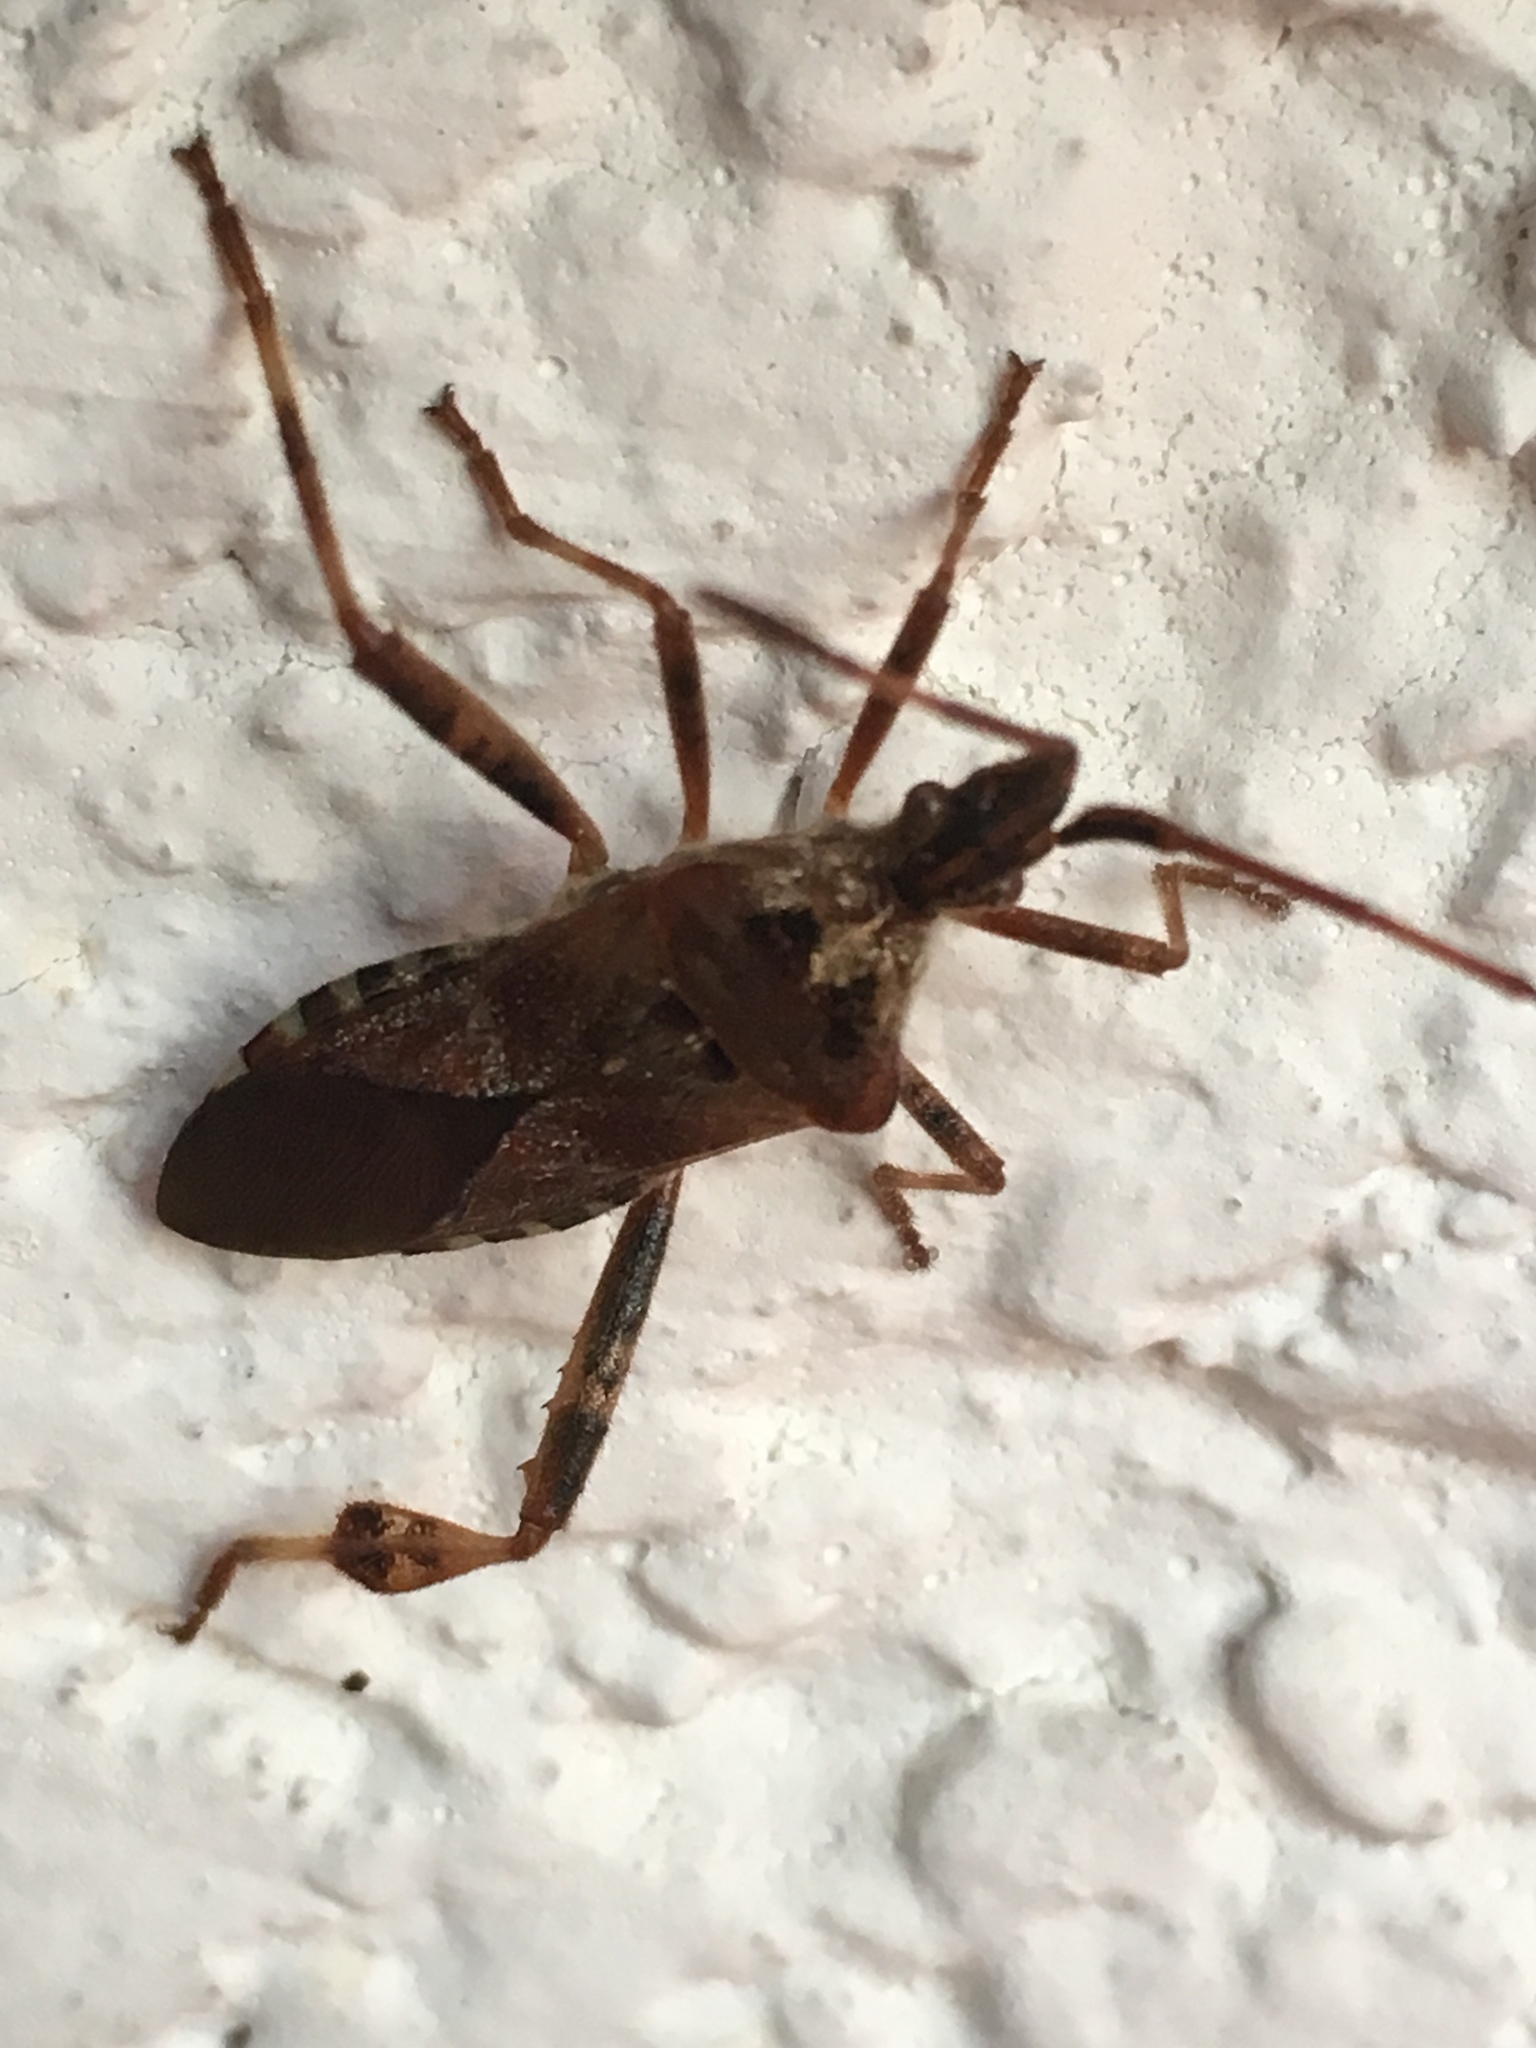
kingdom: Animalia
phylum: Arthropoda
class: Insecta
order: Hemiptera
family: Coreidae
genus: Leptoglossus
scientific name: Leptoglossus occidentalis
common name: Western conifer-seed bug
